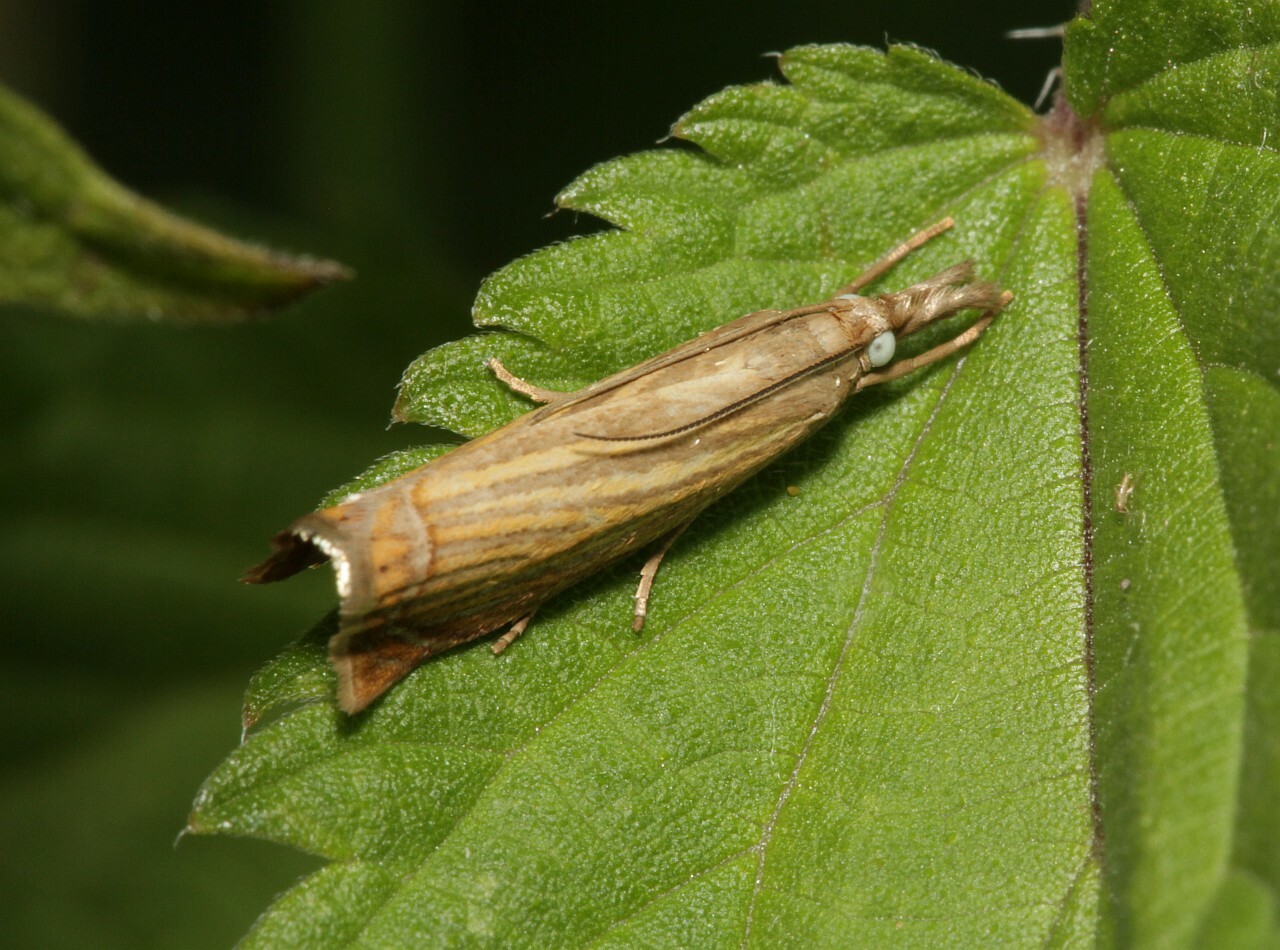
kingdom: Animalia
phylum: Arthropoda
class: Insecta
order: Lepidoptera
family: Crambidae
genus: Chrysoteuchia
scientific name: Chrysoteuchia culmella
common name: Garden grass-veneer
